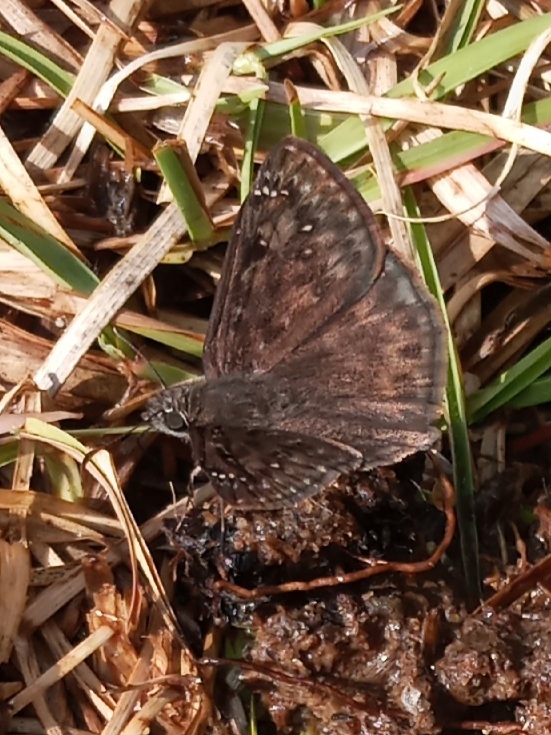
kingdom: Animalia
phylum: Arthropoda
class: Insecta
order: Lepidoptera
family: Hesperiidae
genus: Erynnis
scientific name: Erynnis horatius
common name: Horace's duskywing
